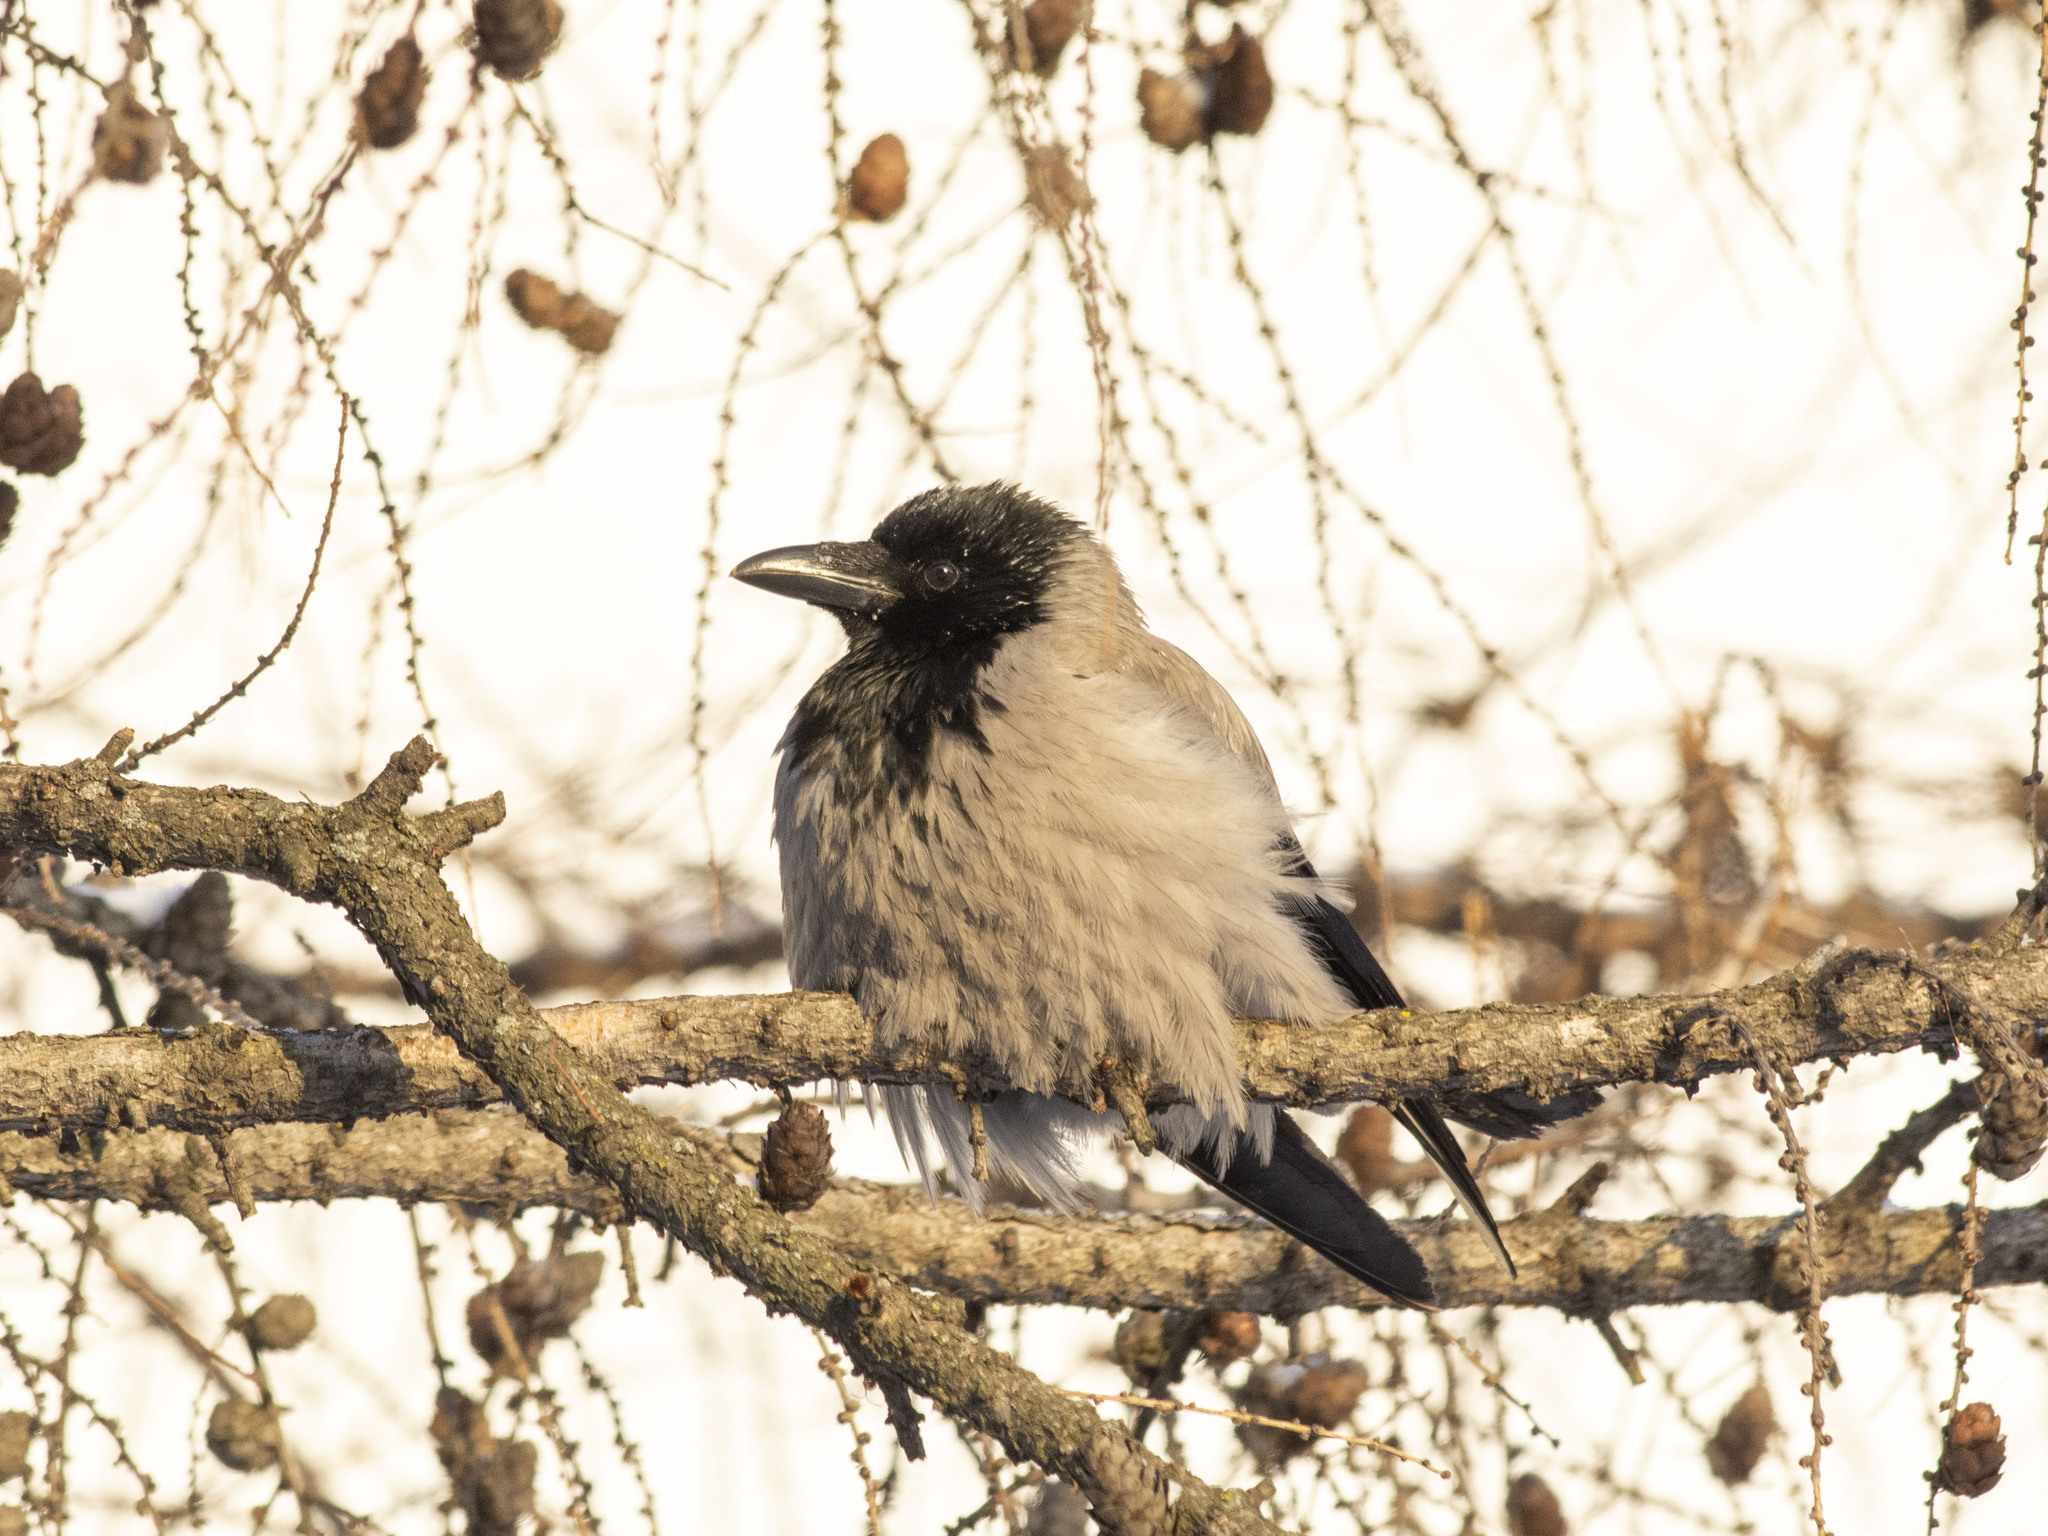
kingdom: Animalia
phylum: Chordata
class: Aves
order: Passeriformes
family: Corvidae
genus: Corvus
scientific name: Corvus cornix
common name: Hooded crow
